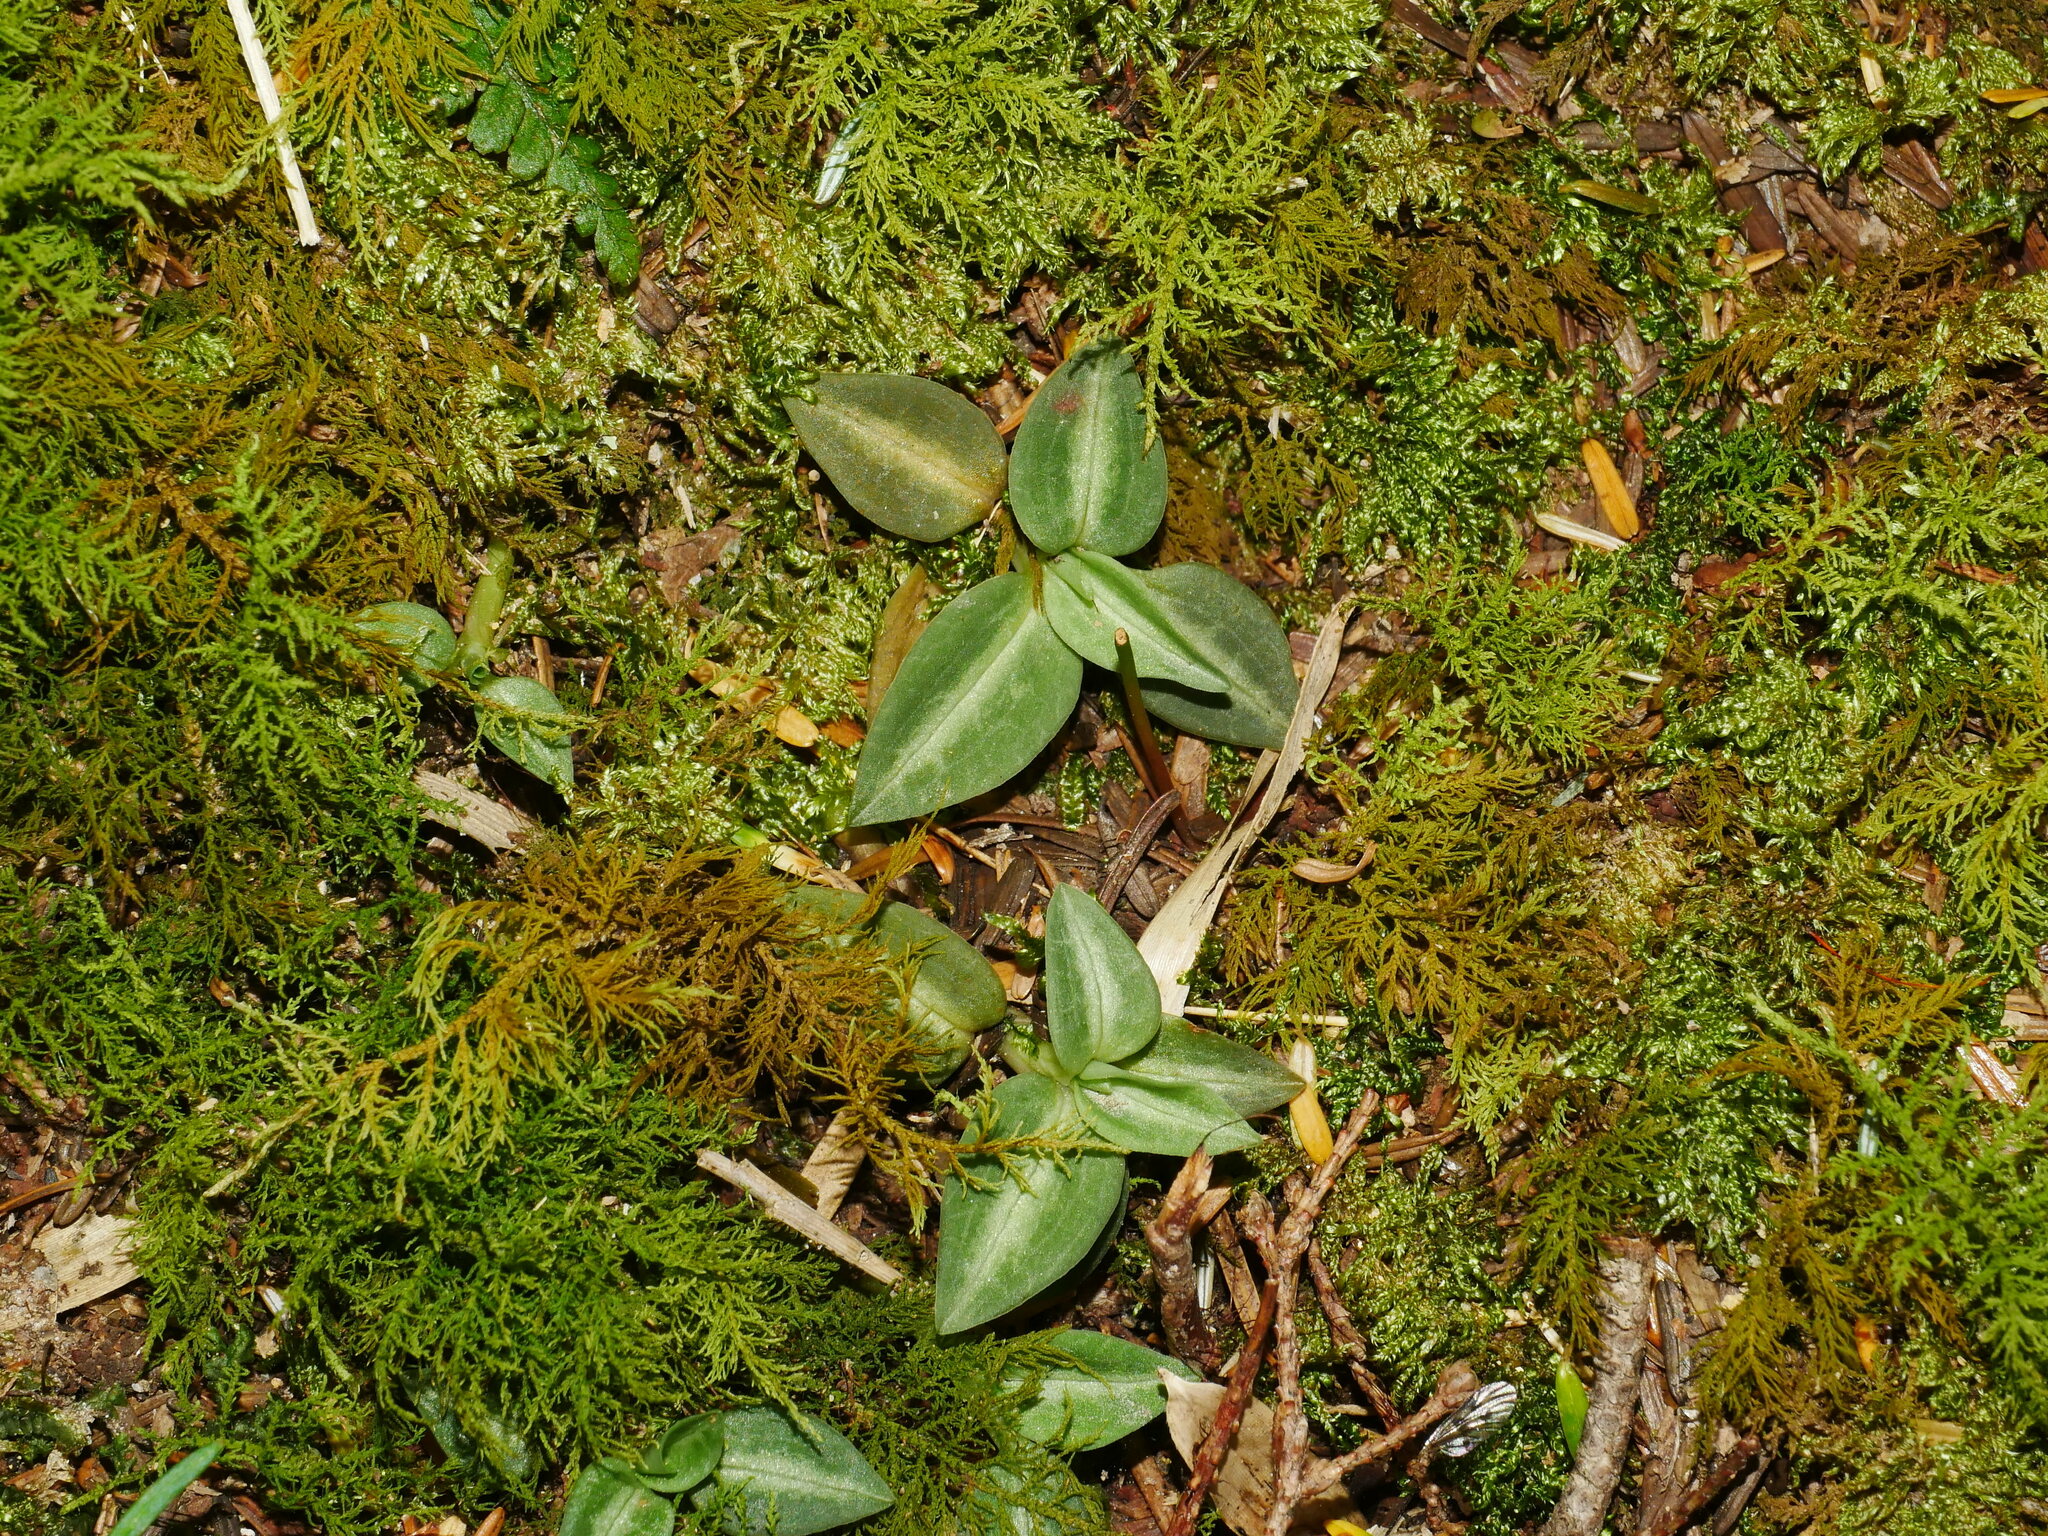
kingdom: Plantae
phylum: Tracheophyta
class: Liliopsida
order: Asparagales
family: Orchidaceae
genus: Goodyera
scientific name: Goodyera nankoensis
